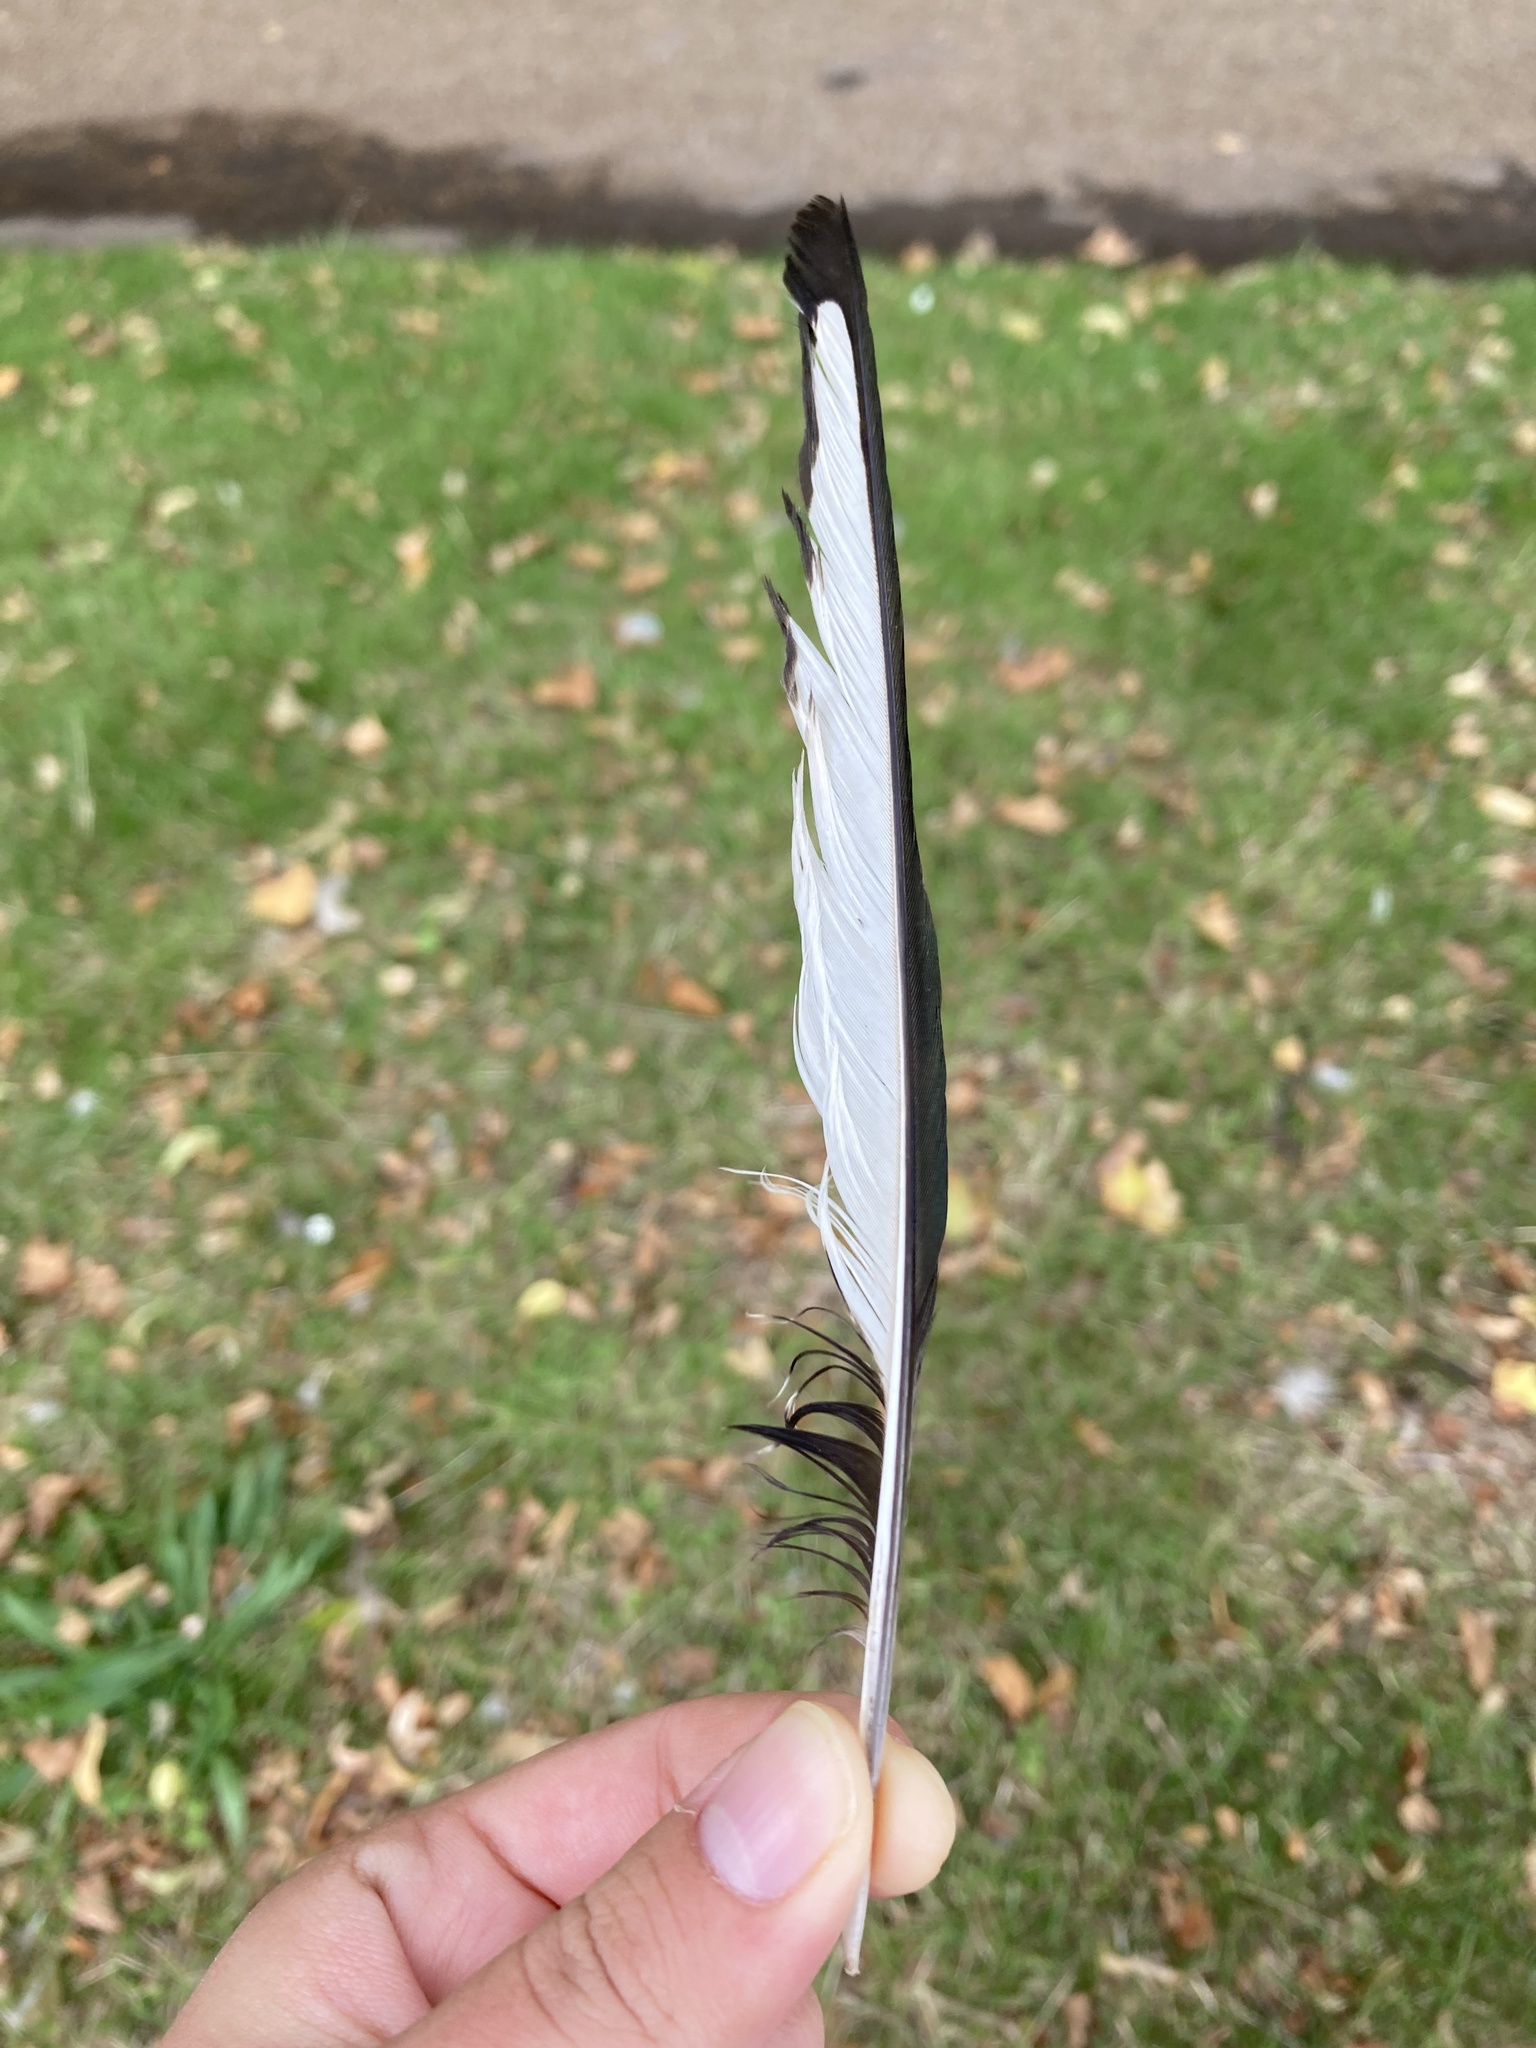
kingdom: Animalia
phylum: Chordata
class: Aves
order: Passeriformes
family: Corvidae
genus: Pica
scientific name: Pica pica
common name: Eurasian magpie
